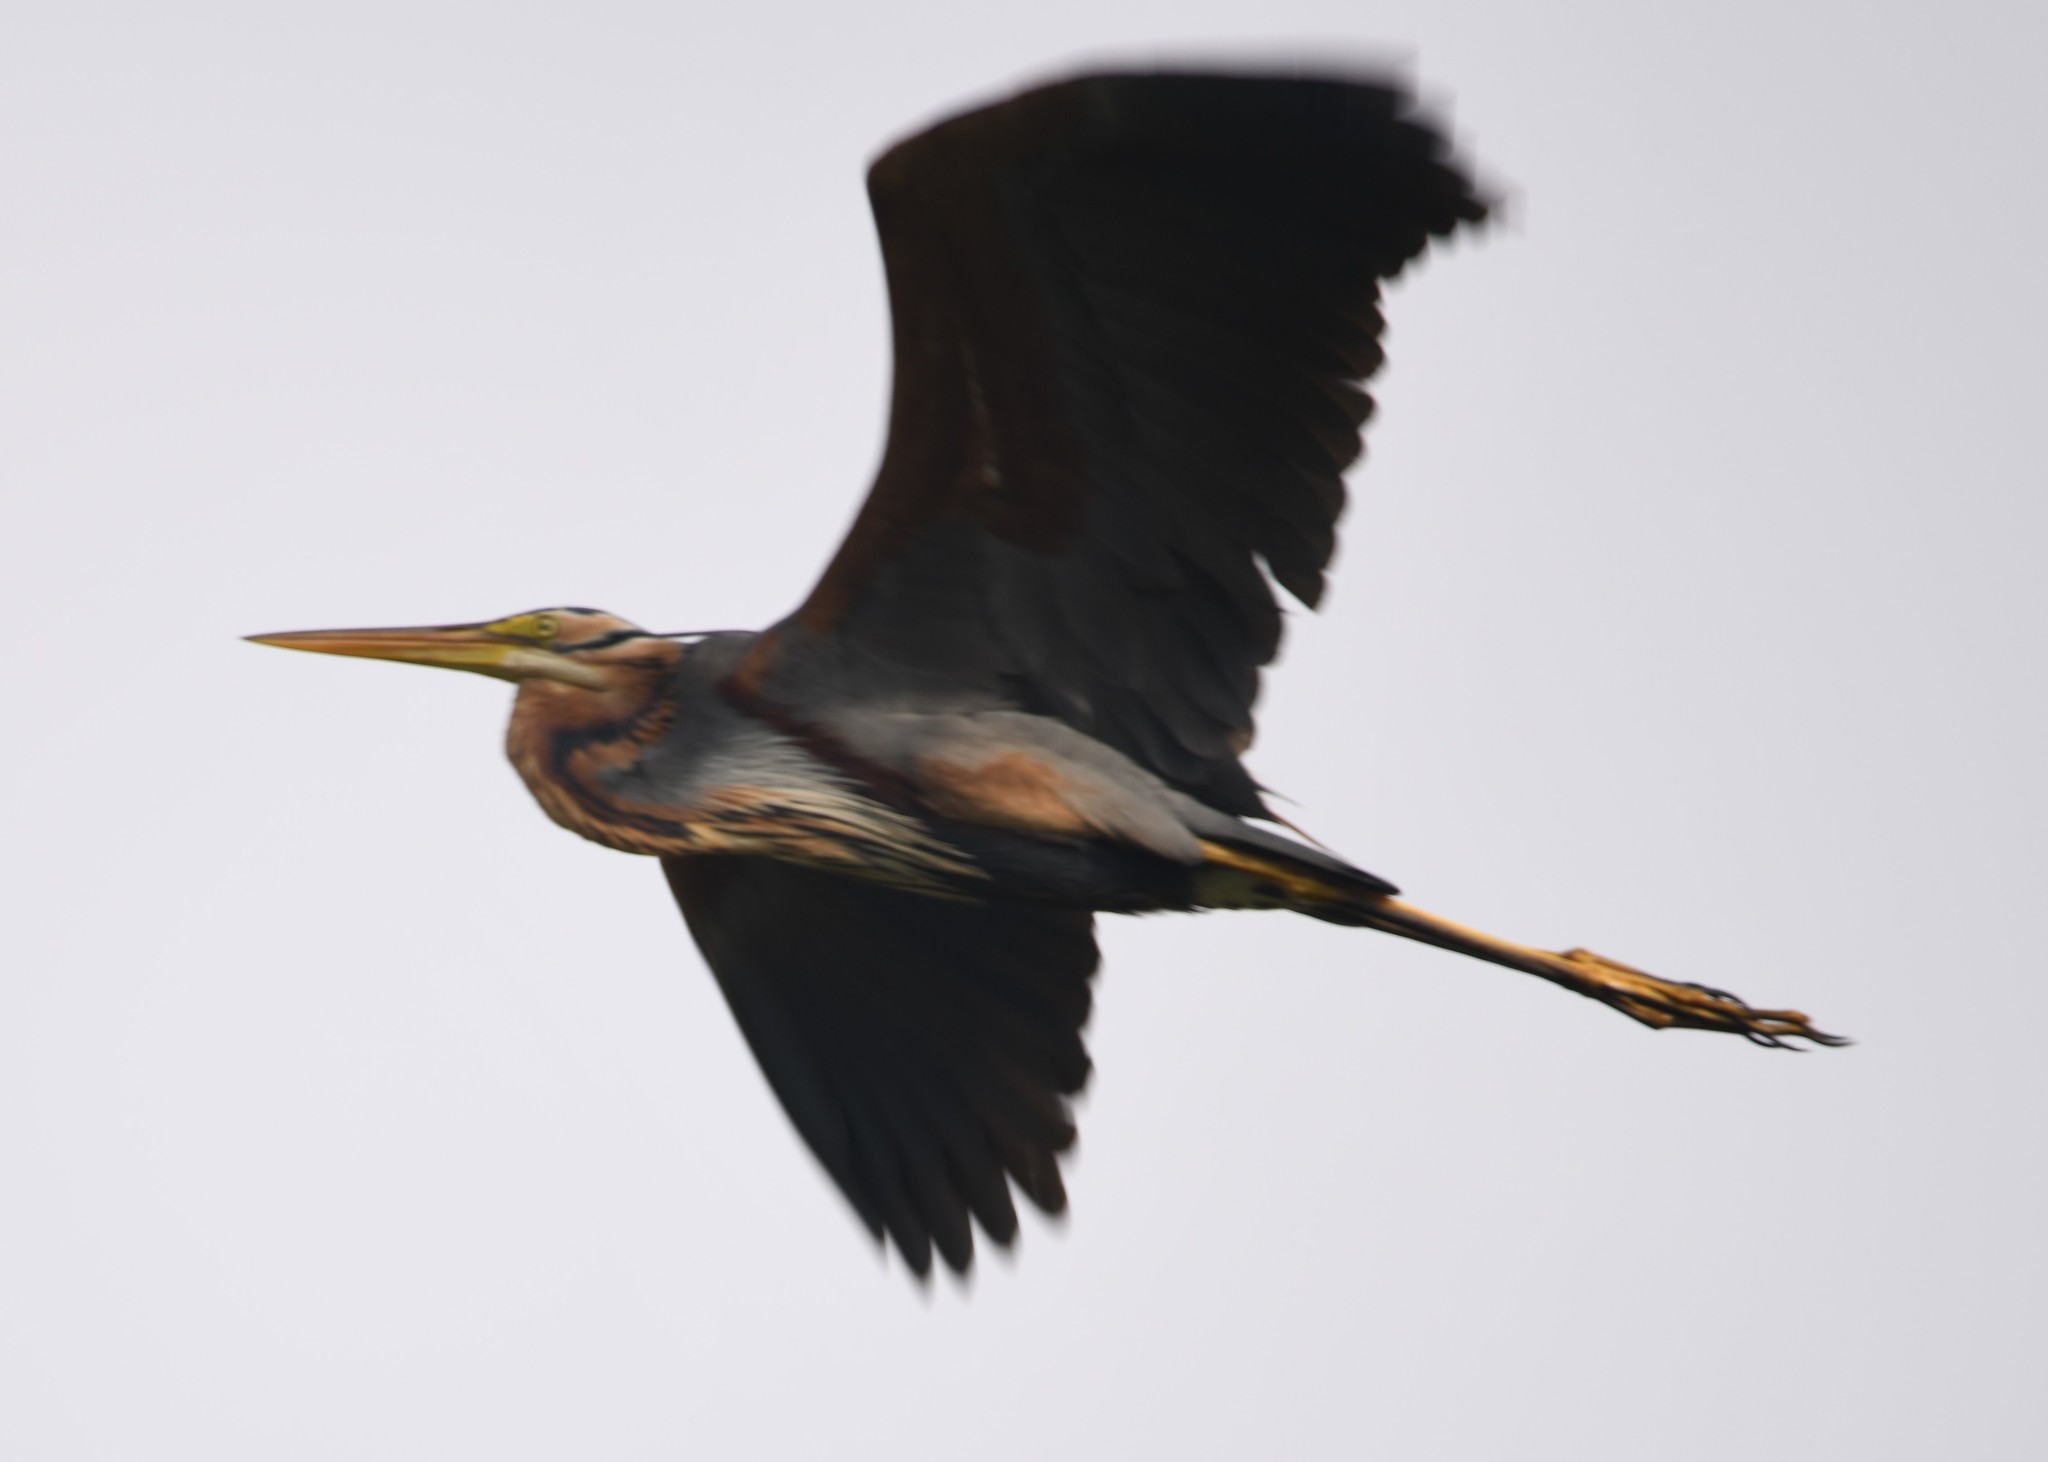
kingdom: Animalia
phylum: Chordata
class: Aves
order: Pelecaniformes
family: Ardeidae
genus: Ardea
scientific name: Ardea purpurea
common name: Purple heron
